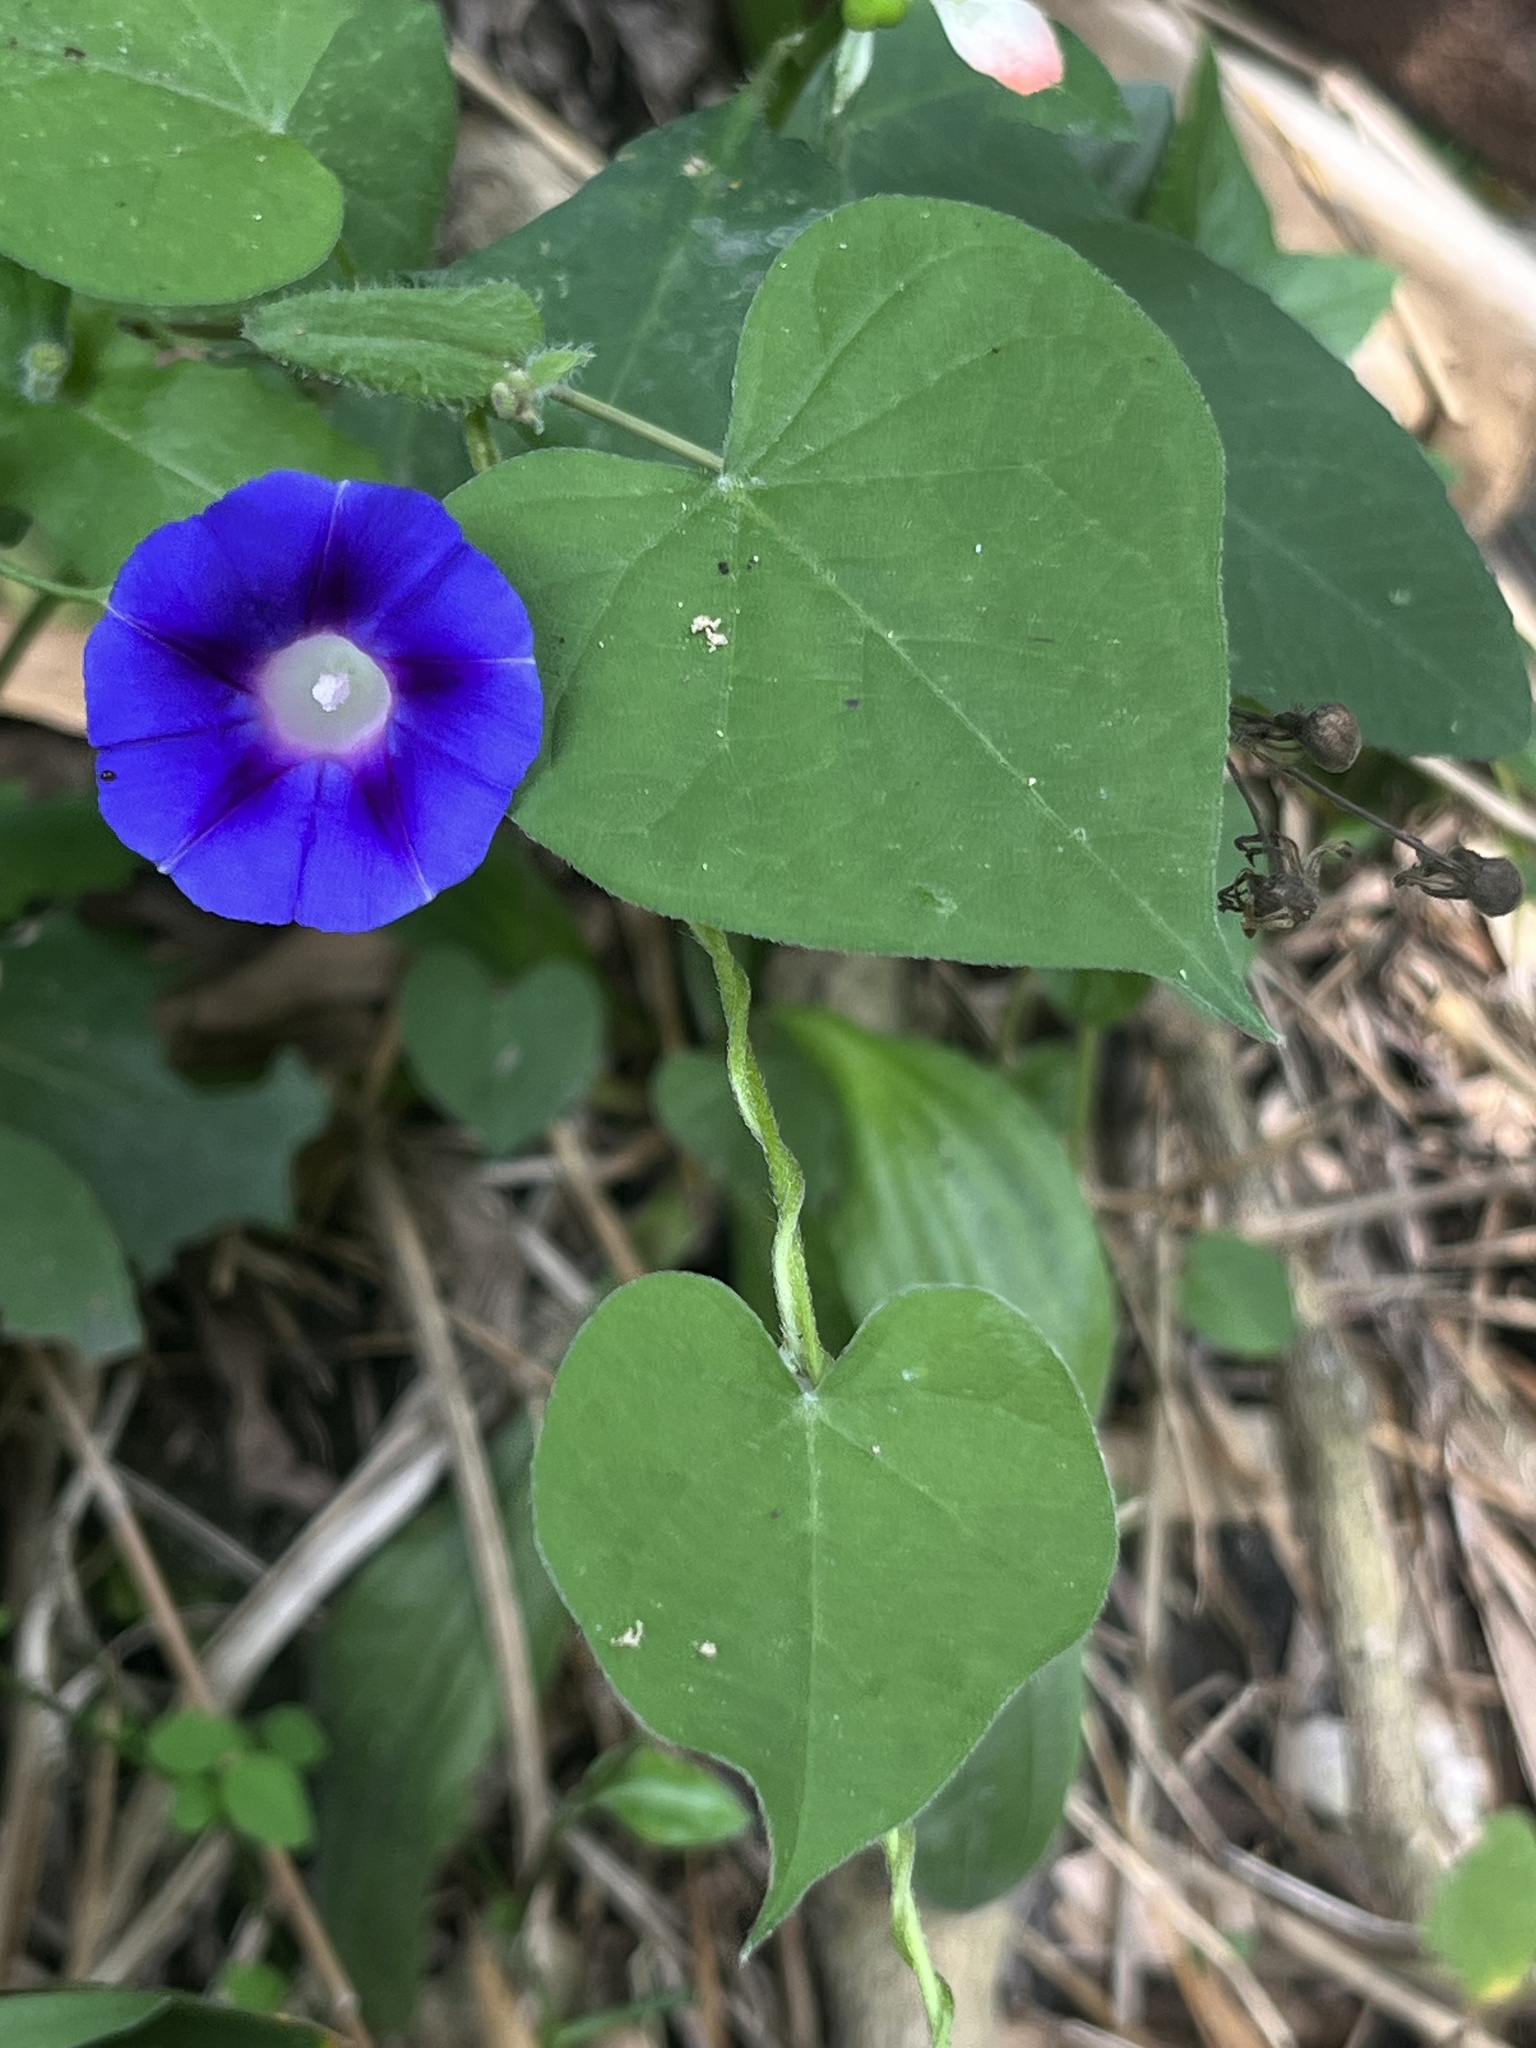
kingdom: Plantae
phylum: Tracheophyta
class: Magnoliopsida
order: Solanales
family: Convolvulaceae
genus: Ipomoea
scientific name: Ipomoea purpurea
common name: Common morning-glory
